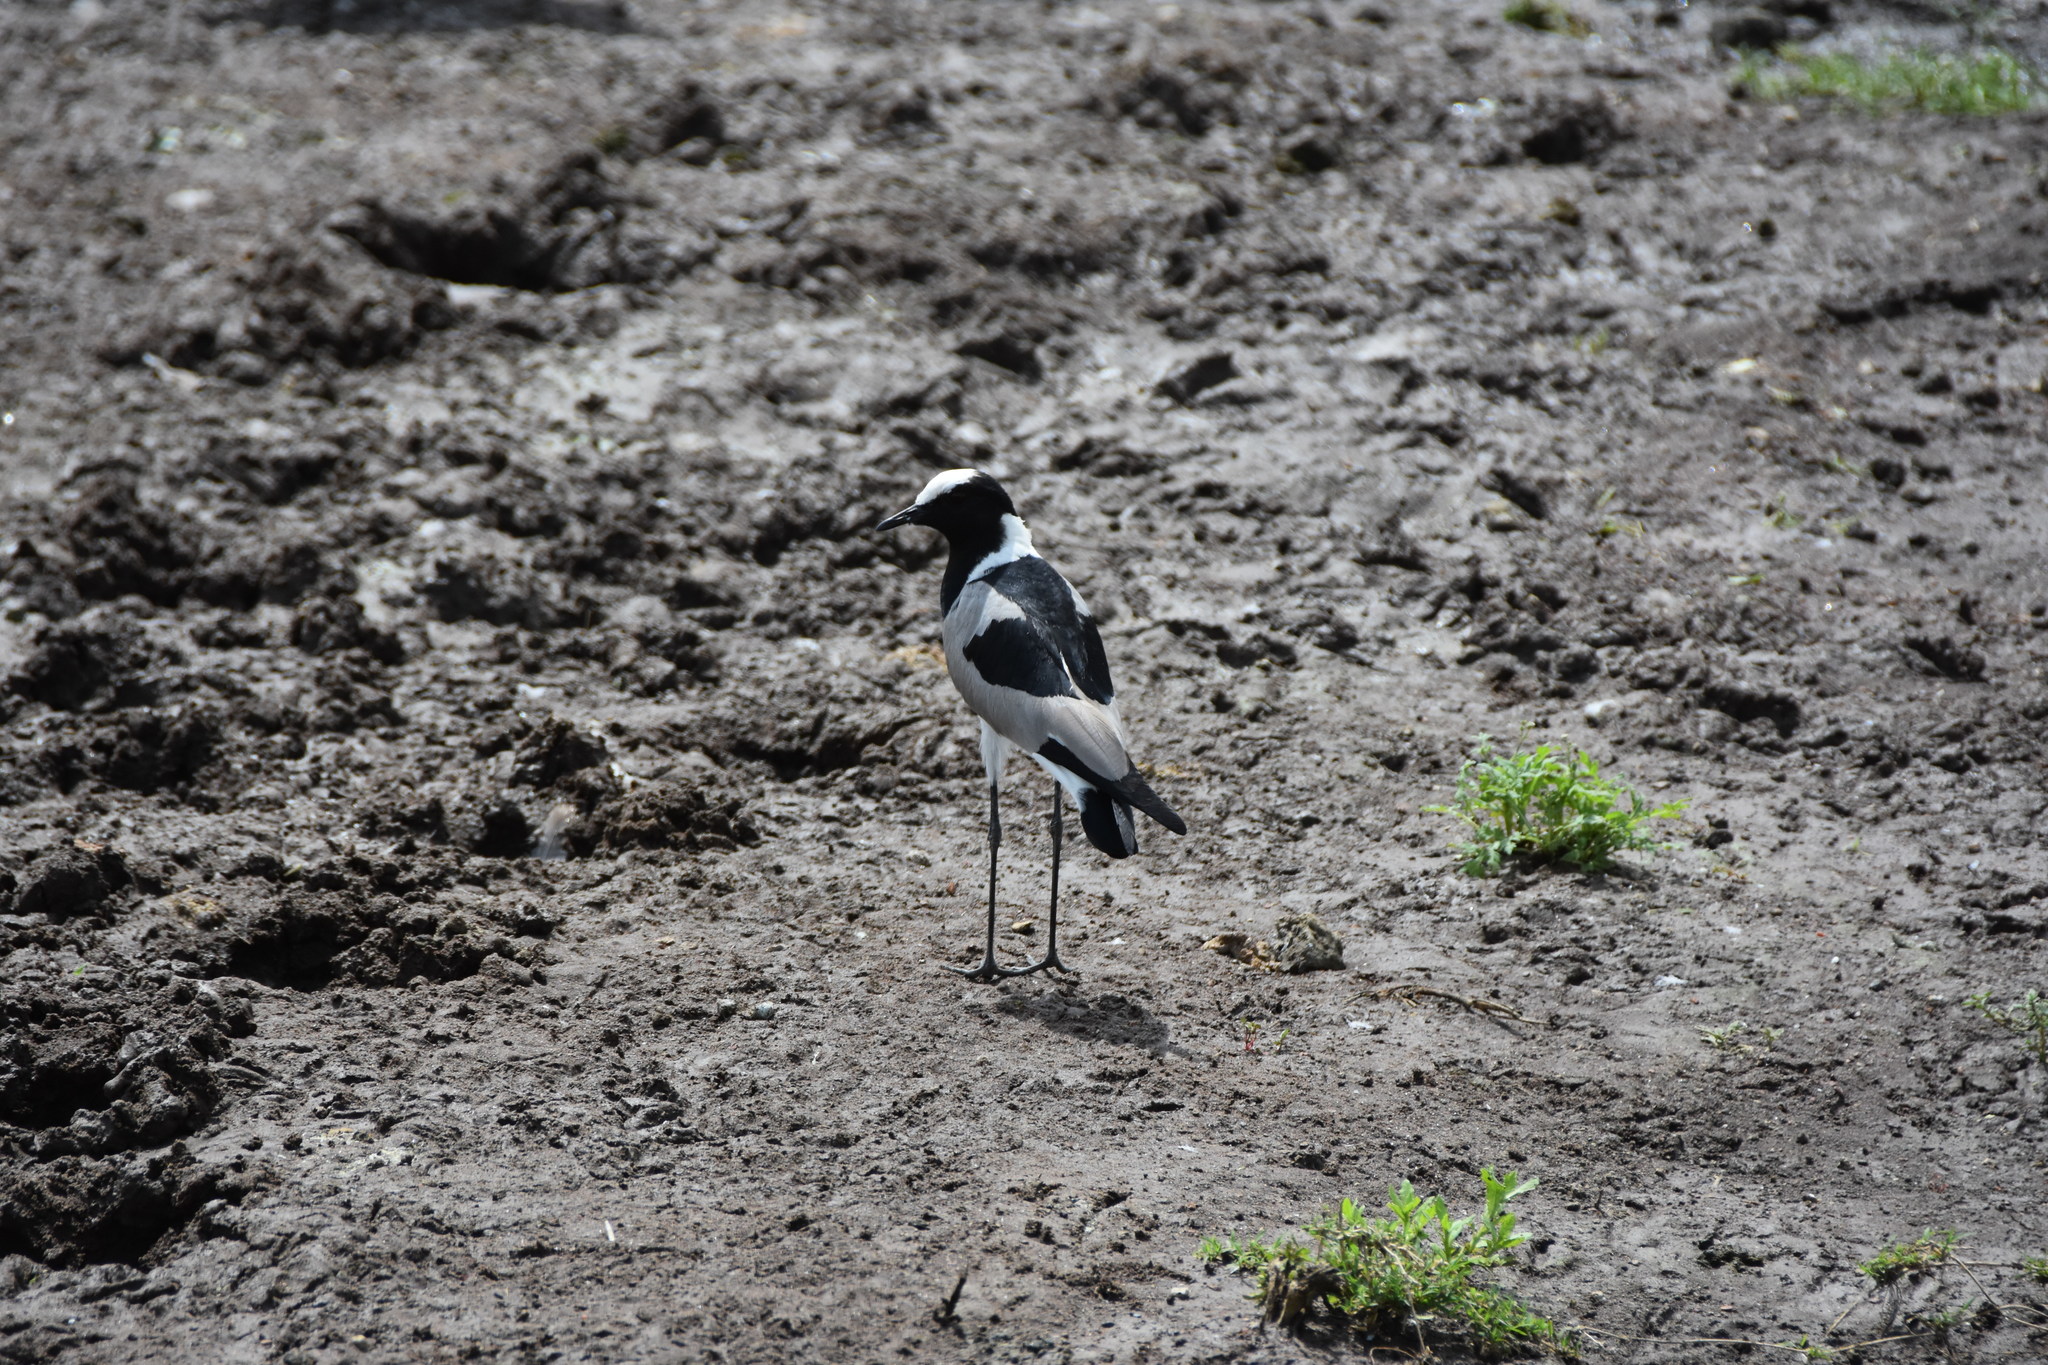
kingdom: Animalia
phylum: Chordata
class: Aves
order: Charadriiformes
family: Charadriidae
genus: Vanellus
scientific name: Vanellus armatus
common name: Blacksmith lapwing
